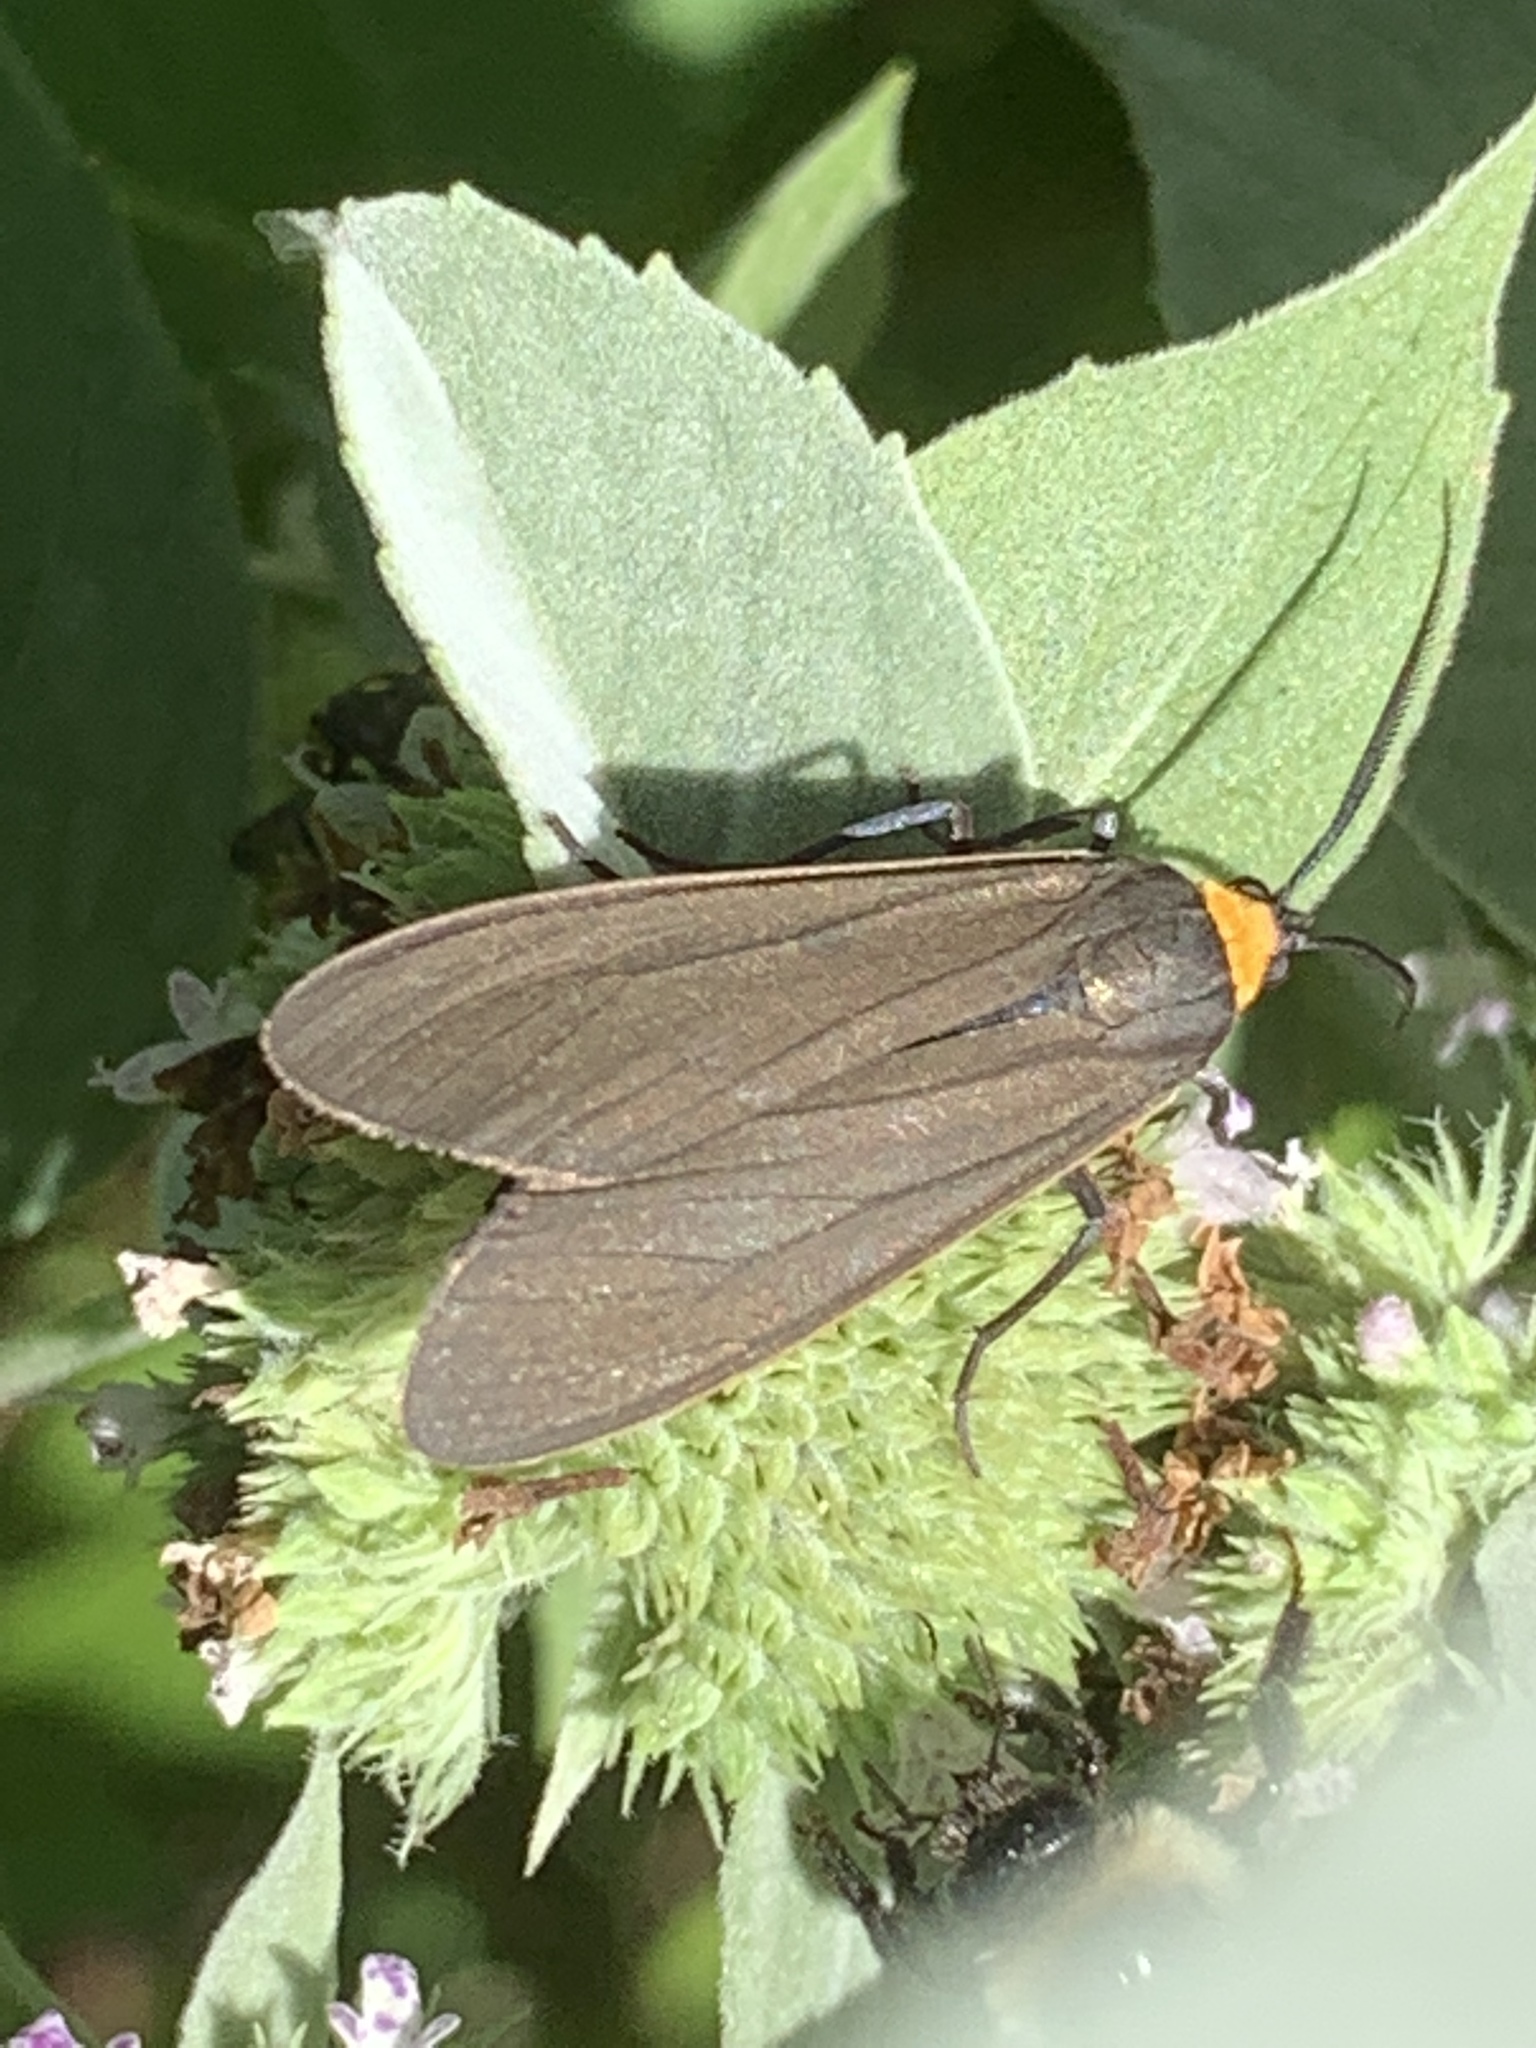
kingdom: Animalia
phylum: Arthropoda
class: Insecta
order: Lepidoptera
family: Erebidae
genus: Cisseps
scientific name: Cisseps fulvicollis
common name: Yellow-collared scape moth
